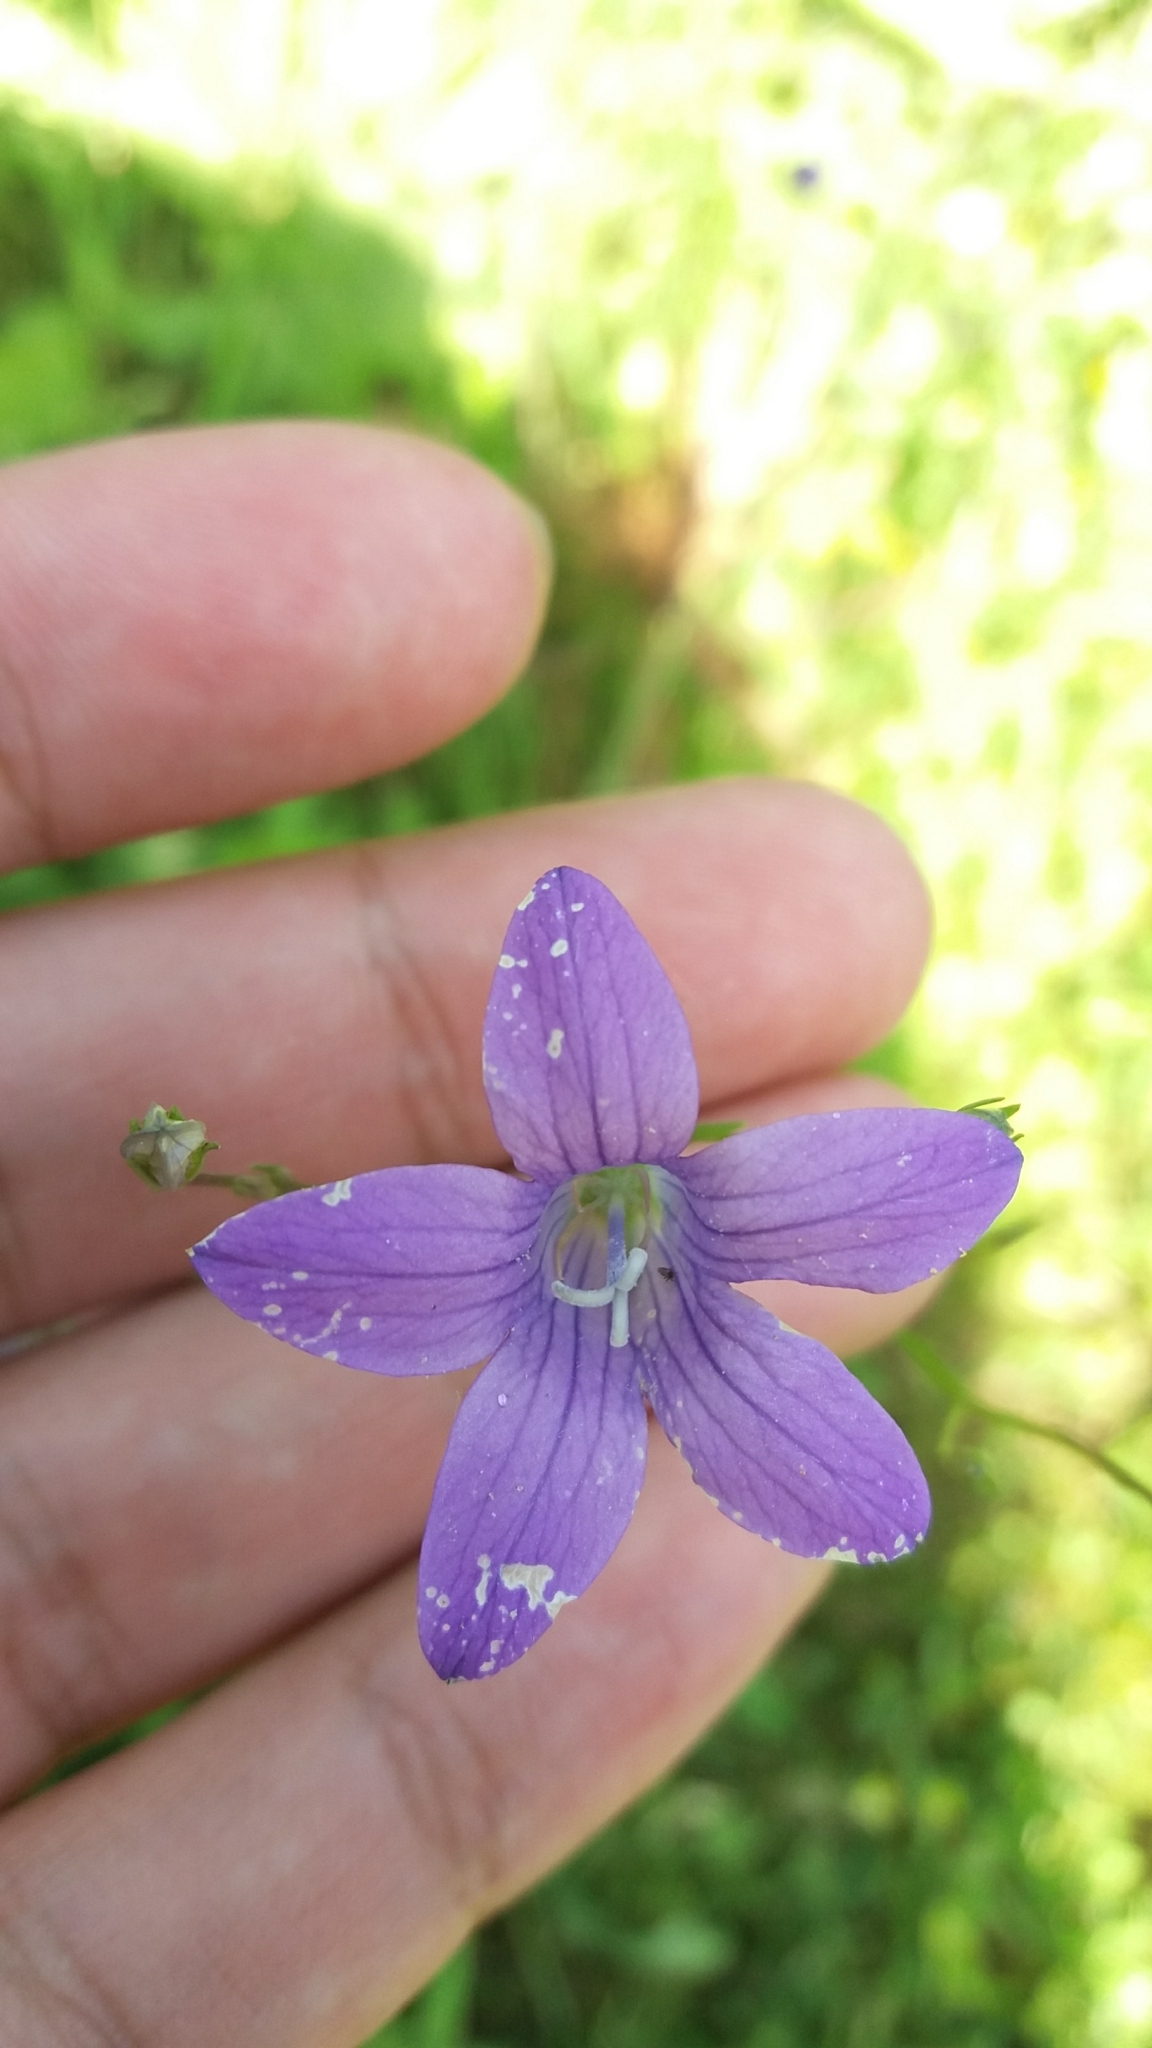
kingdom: Plantae
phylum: Tracheophyta
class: Magnoliopsida
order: Asterales
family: Campanulaceae
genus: Campanula
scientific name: Campanula patula
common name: Spreading bellflower
